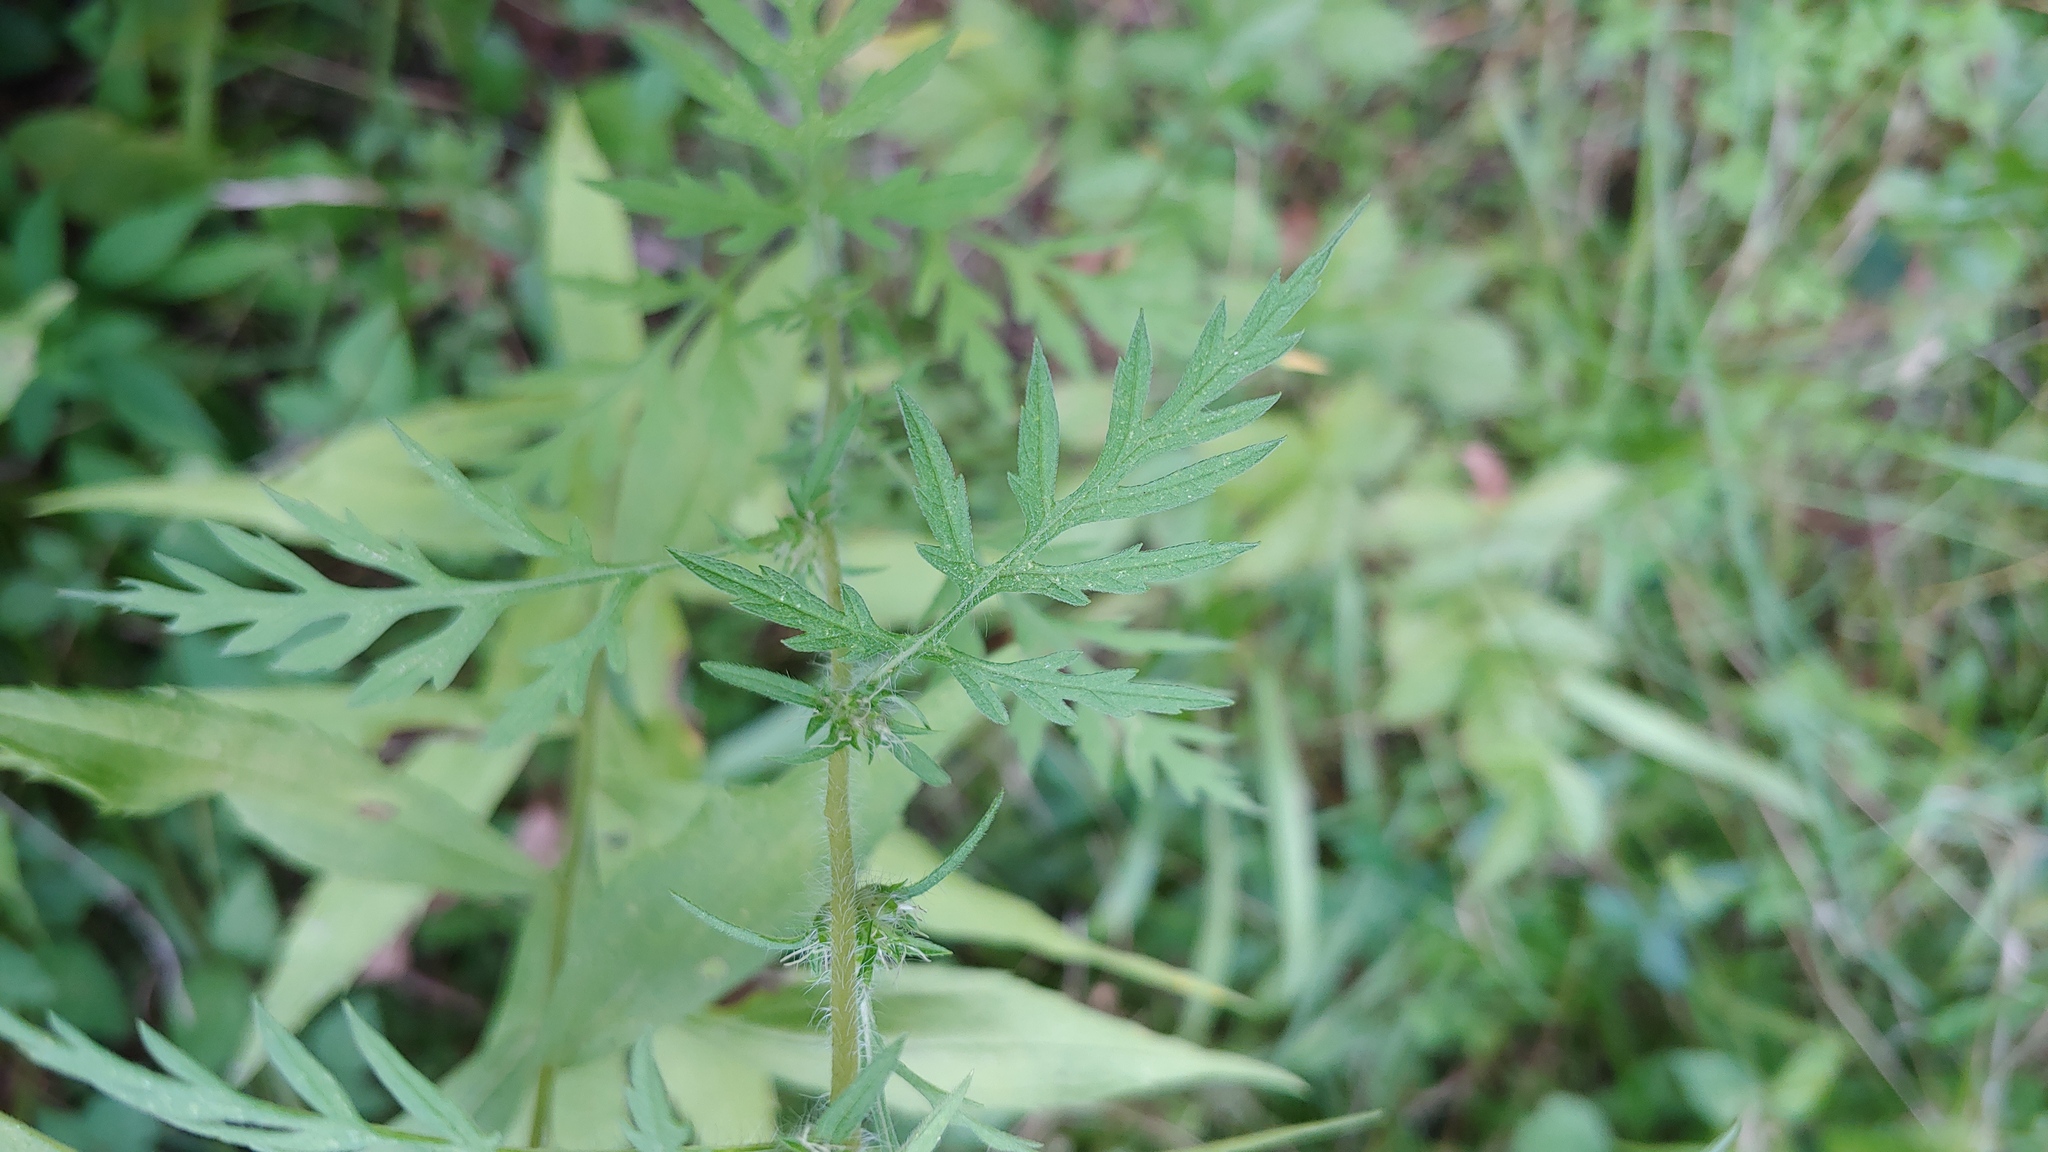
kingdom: Plantae
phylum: Tracheophyta
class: Magnoliopsida
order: Asterales
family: Asteraceae
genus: Ambrosia
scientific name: Ambrosia artemisiifolia
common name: Annual ragweed
